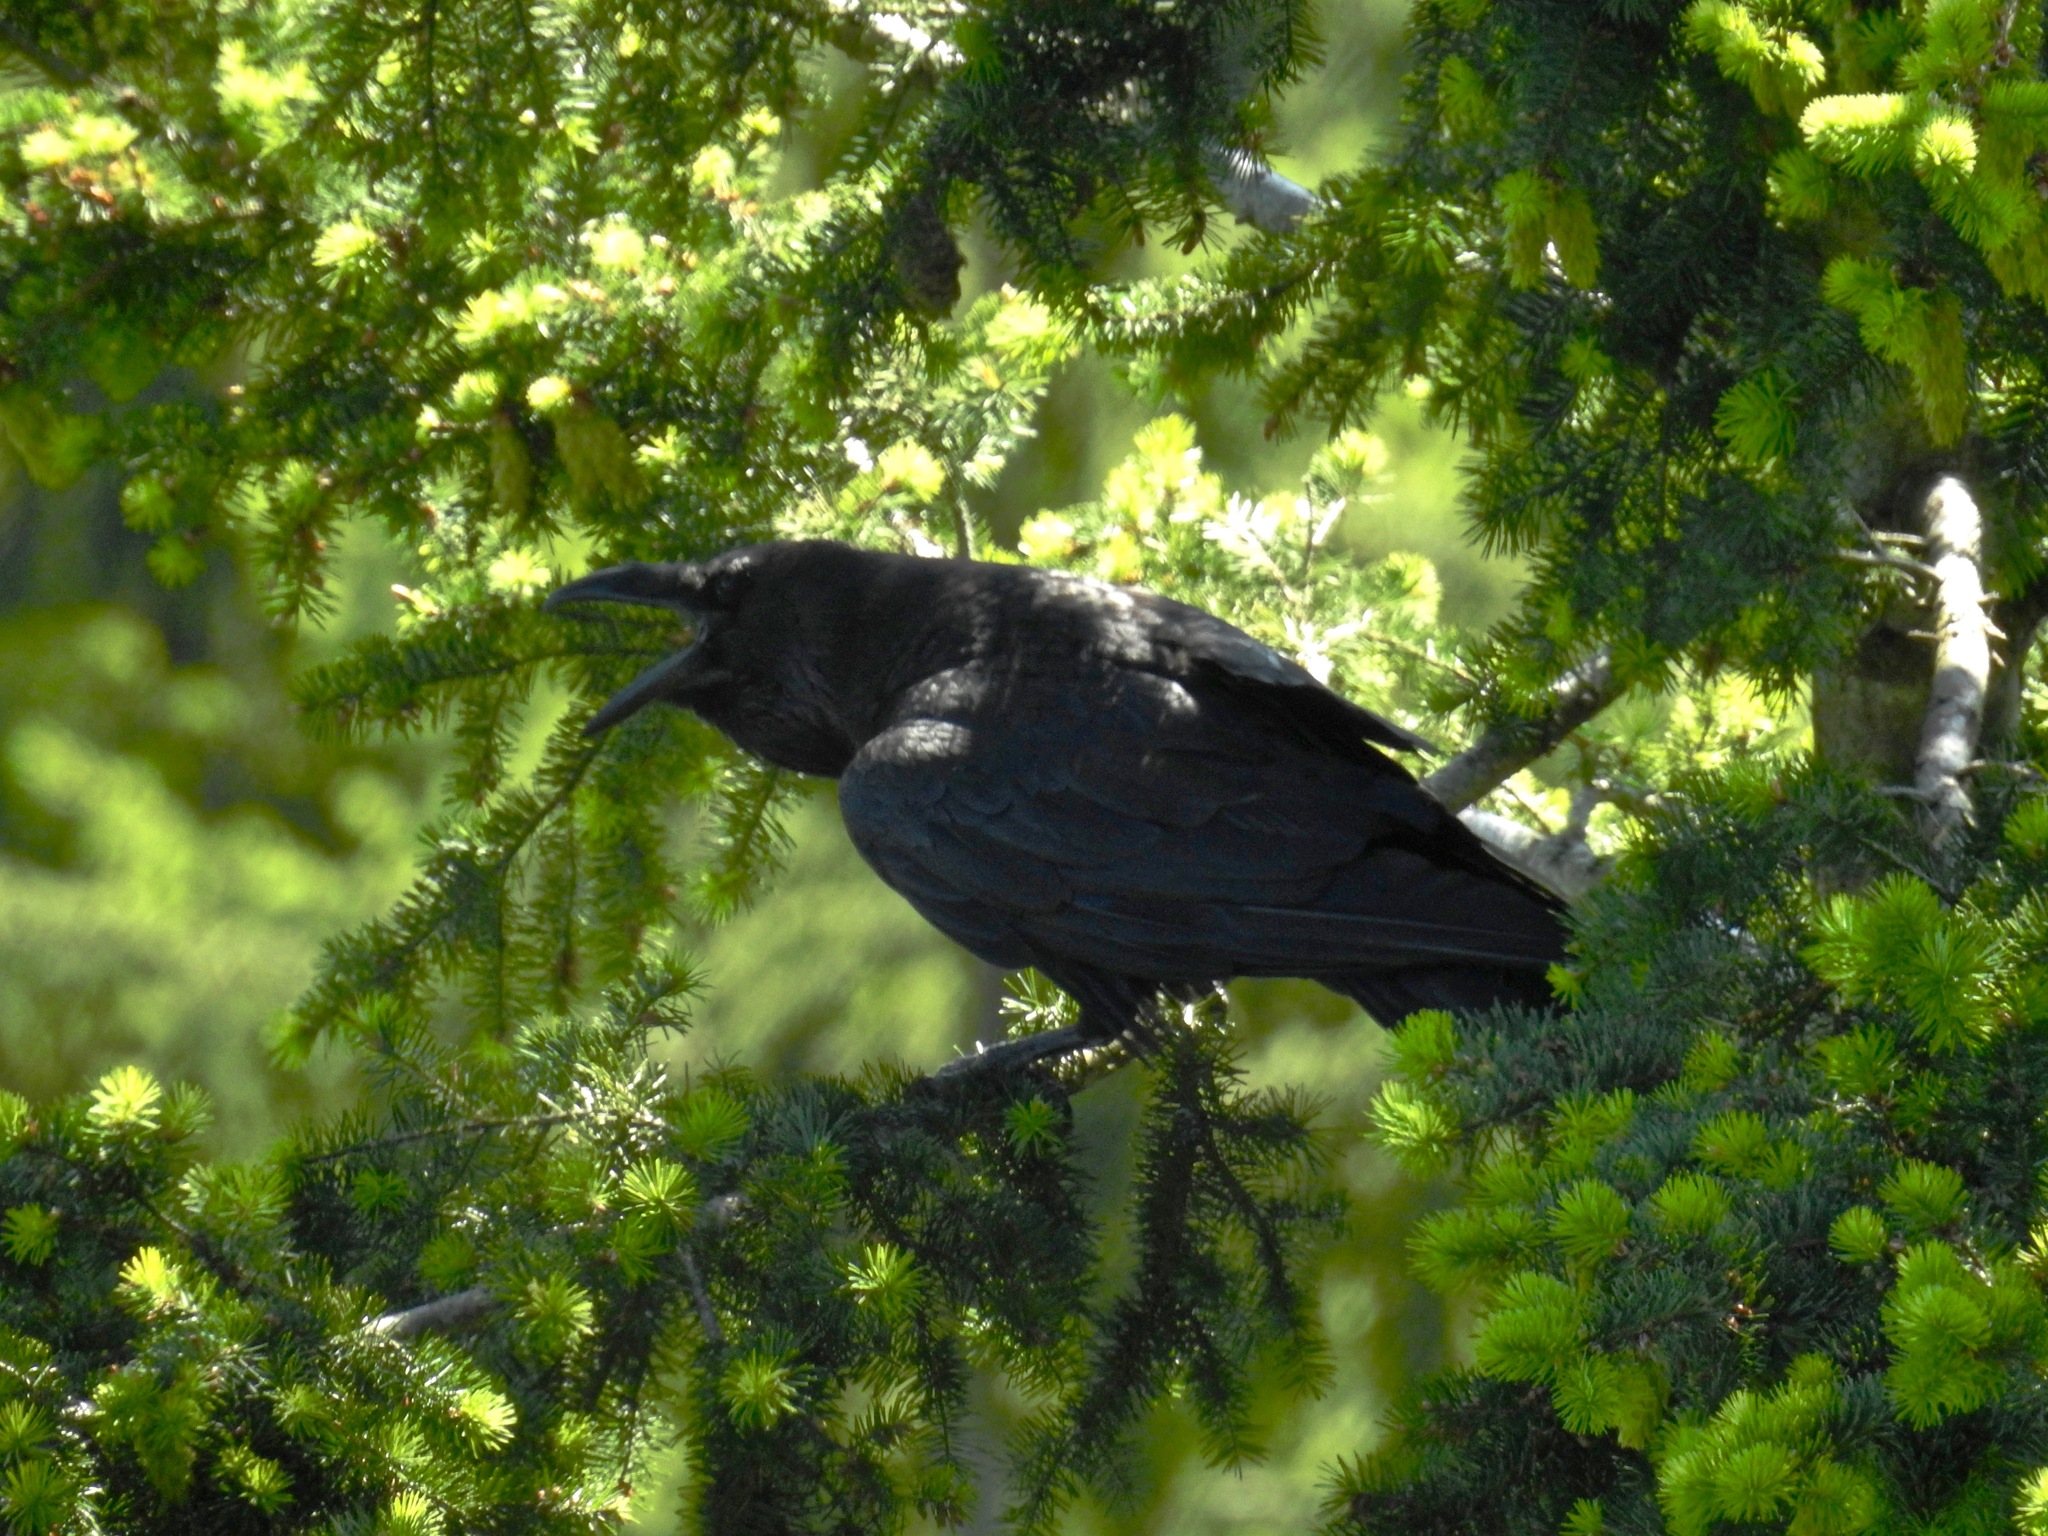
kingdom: Animalia
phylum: Chordata
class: Aves
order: Passeriformes
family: Corvidae
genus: Corvus
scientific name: Corvus corax
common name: Common raven
